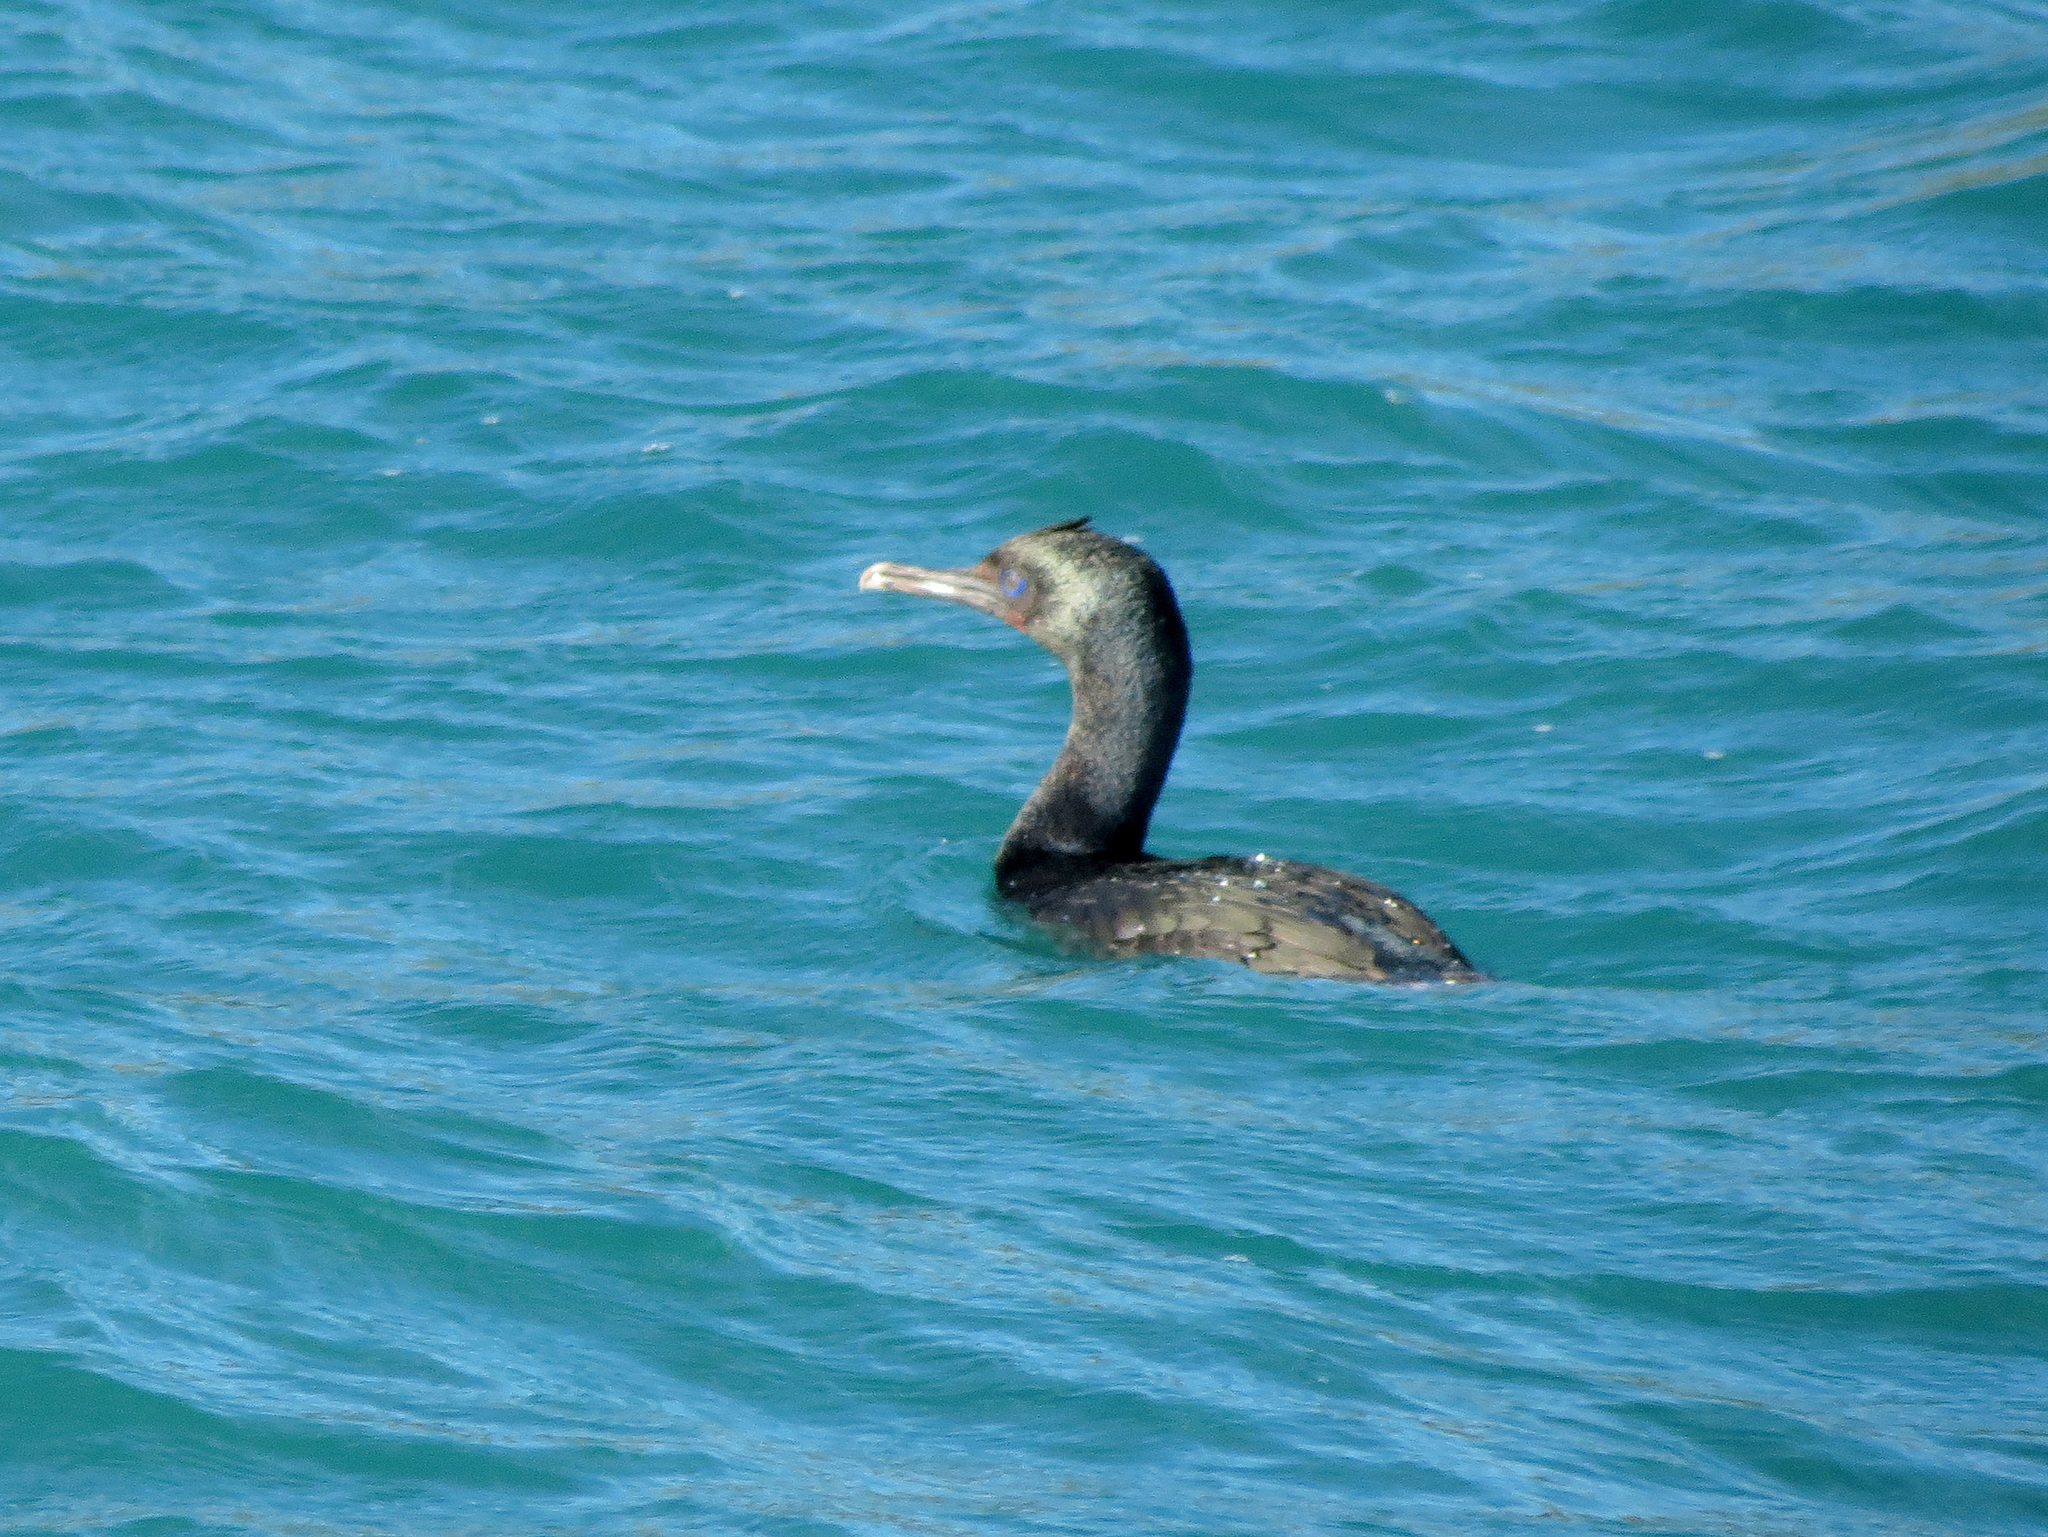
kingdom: Animalia
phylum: Chordata
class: Aves
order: Suliformes
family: Phalacrocoracidae
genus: Leucocarbo
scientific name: Leucocarbo chalconotus
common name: Stewart shag
